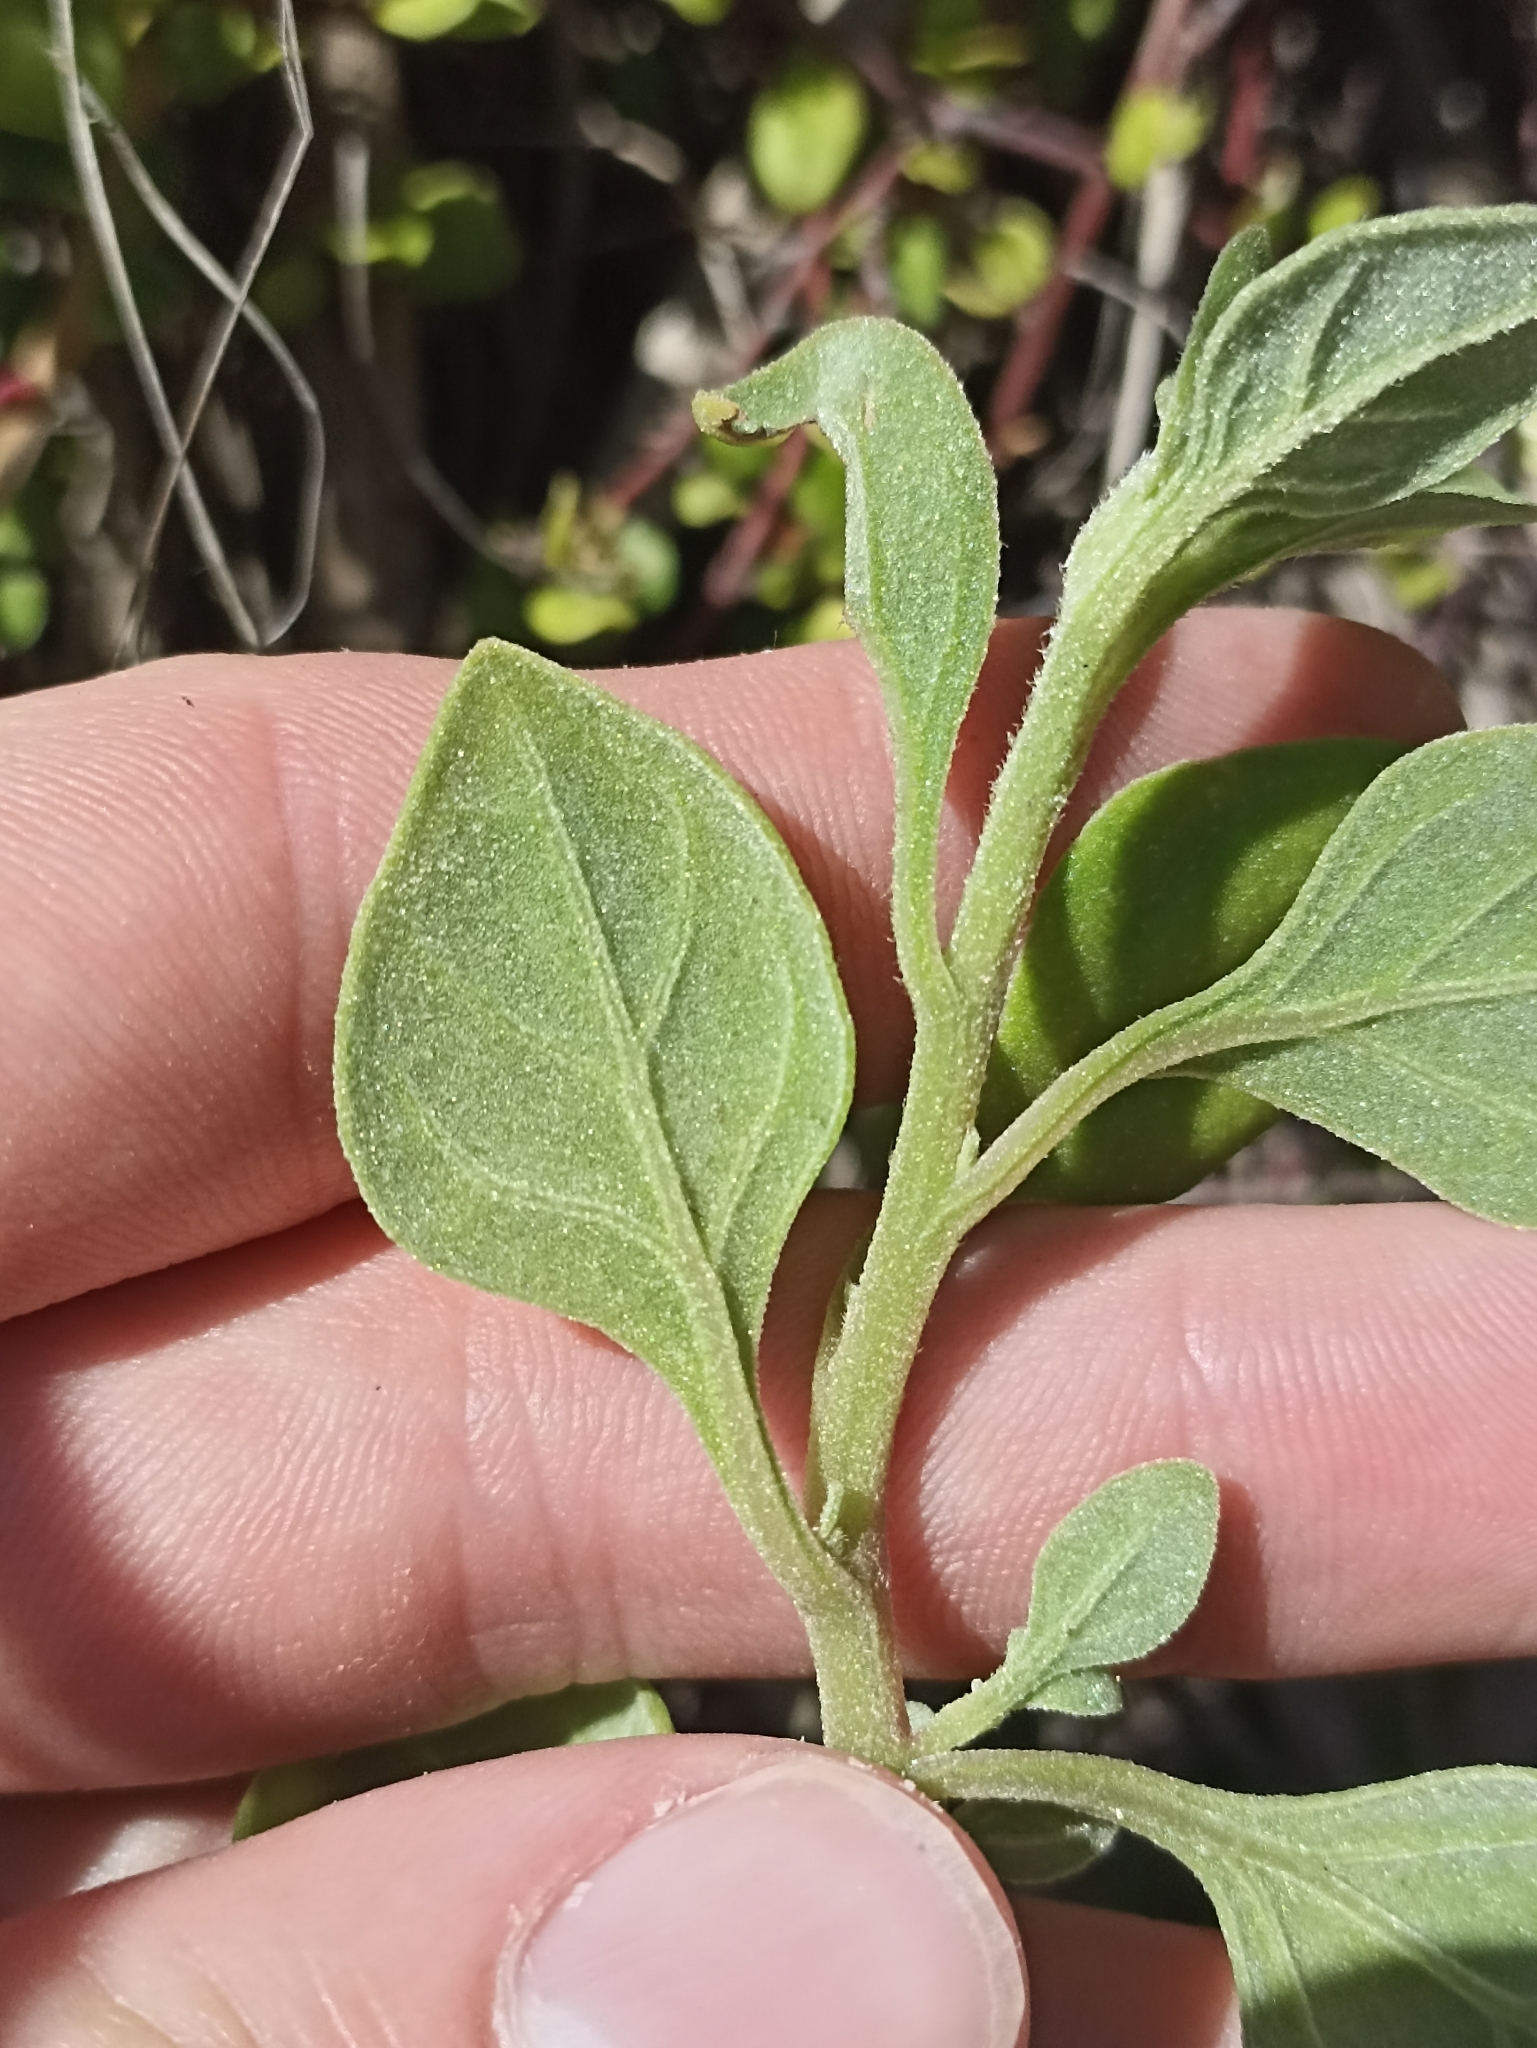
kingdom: Plantae
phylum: Tracheophyta
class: Magnoliopsida
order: Caryophyllales
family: Aizoaceae
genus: Tetragonia
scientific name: Tetragonia implexicoma
